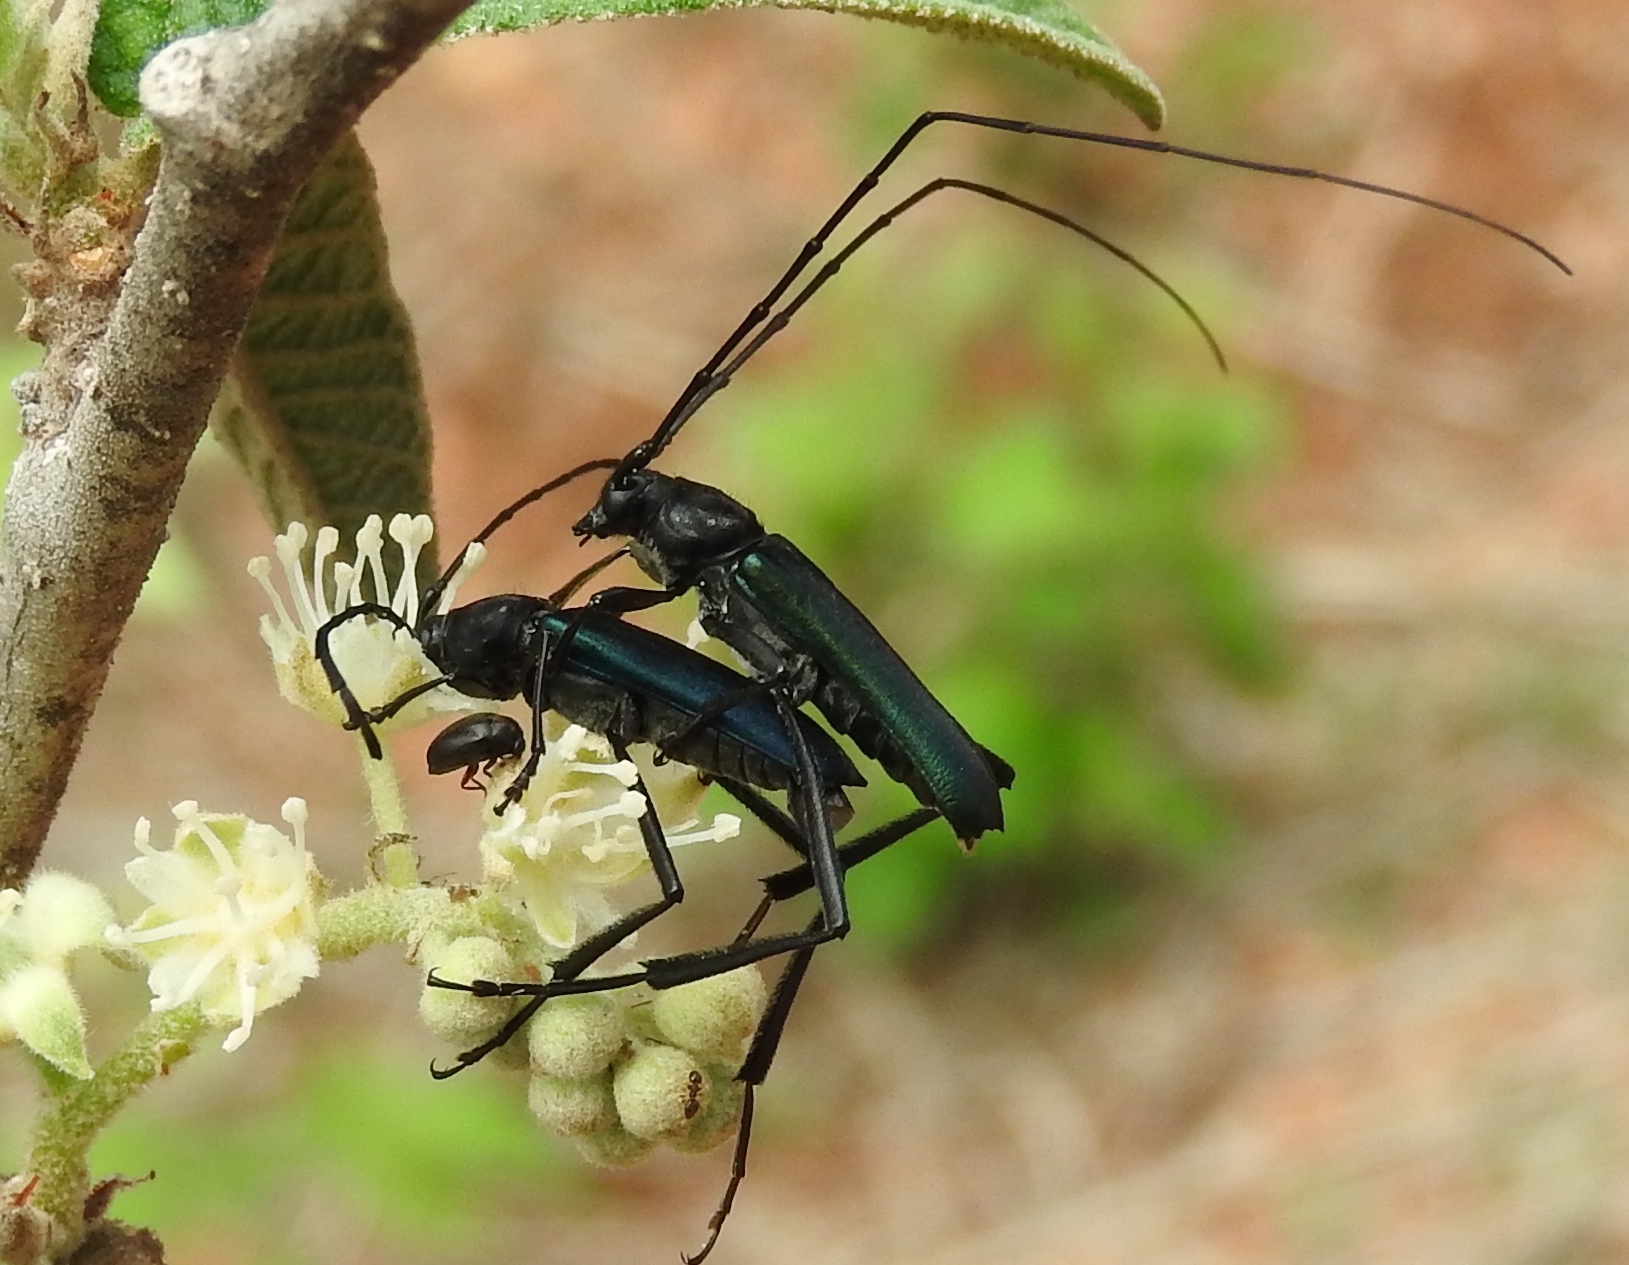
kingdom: Animalia
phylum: Arthropoda
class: Insecta
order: Coleoptera
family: Cerambycidae
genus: Pseudodeltaspis
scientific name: Pseudodeltaspis cyanea
